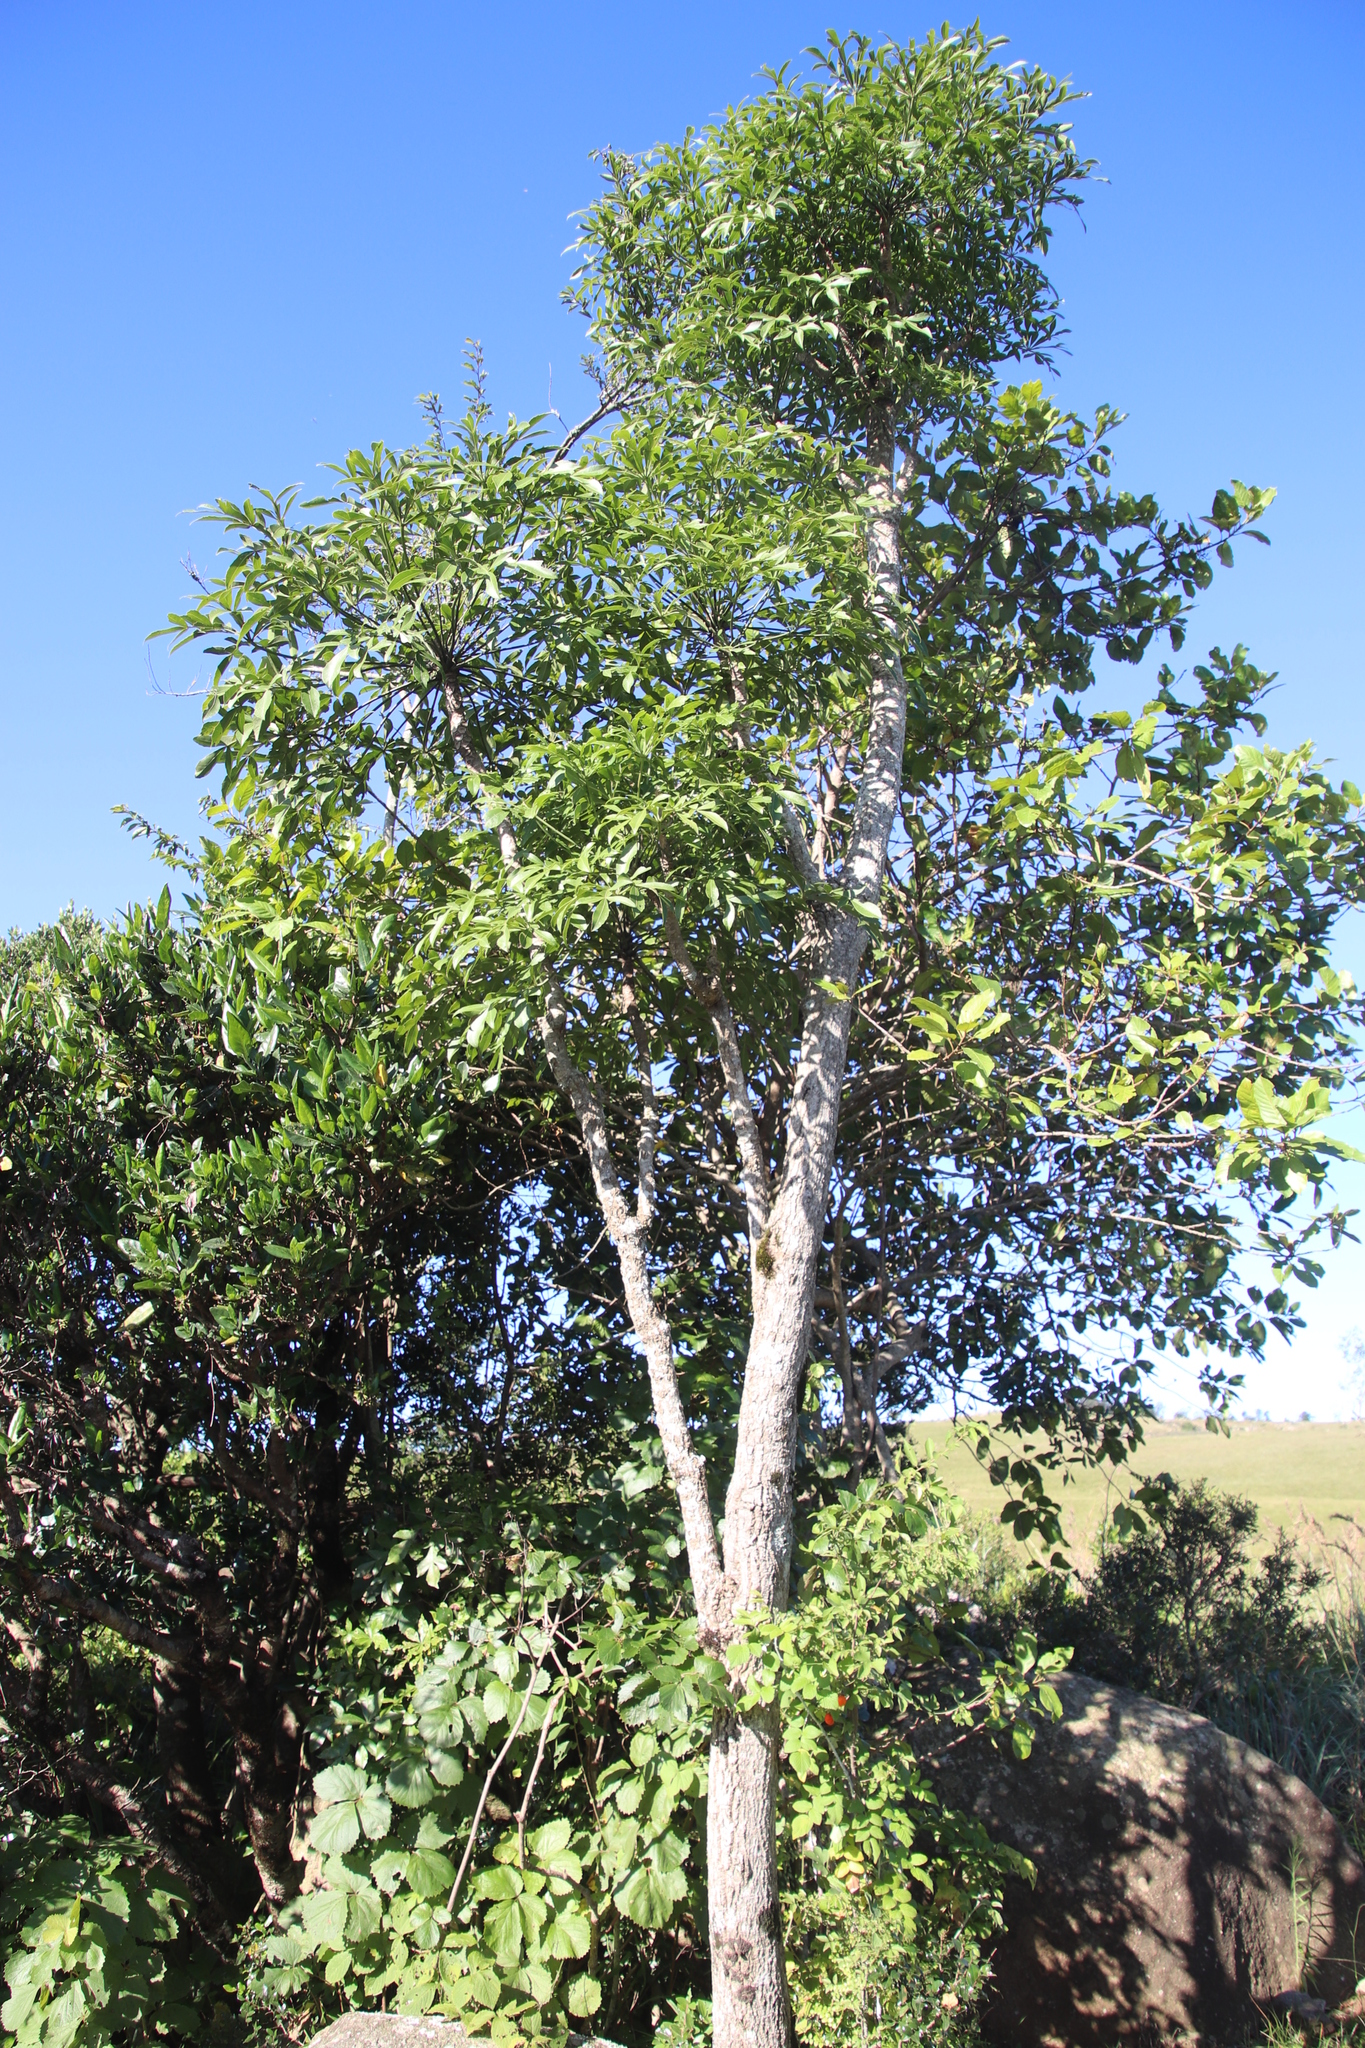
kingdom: Plantae
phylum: Tracheophyta
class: Magnoliopsida
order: Apiales
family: Araliaceae
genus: Cussonia
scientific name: Cussonia spicata
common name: Common cabbagetree
